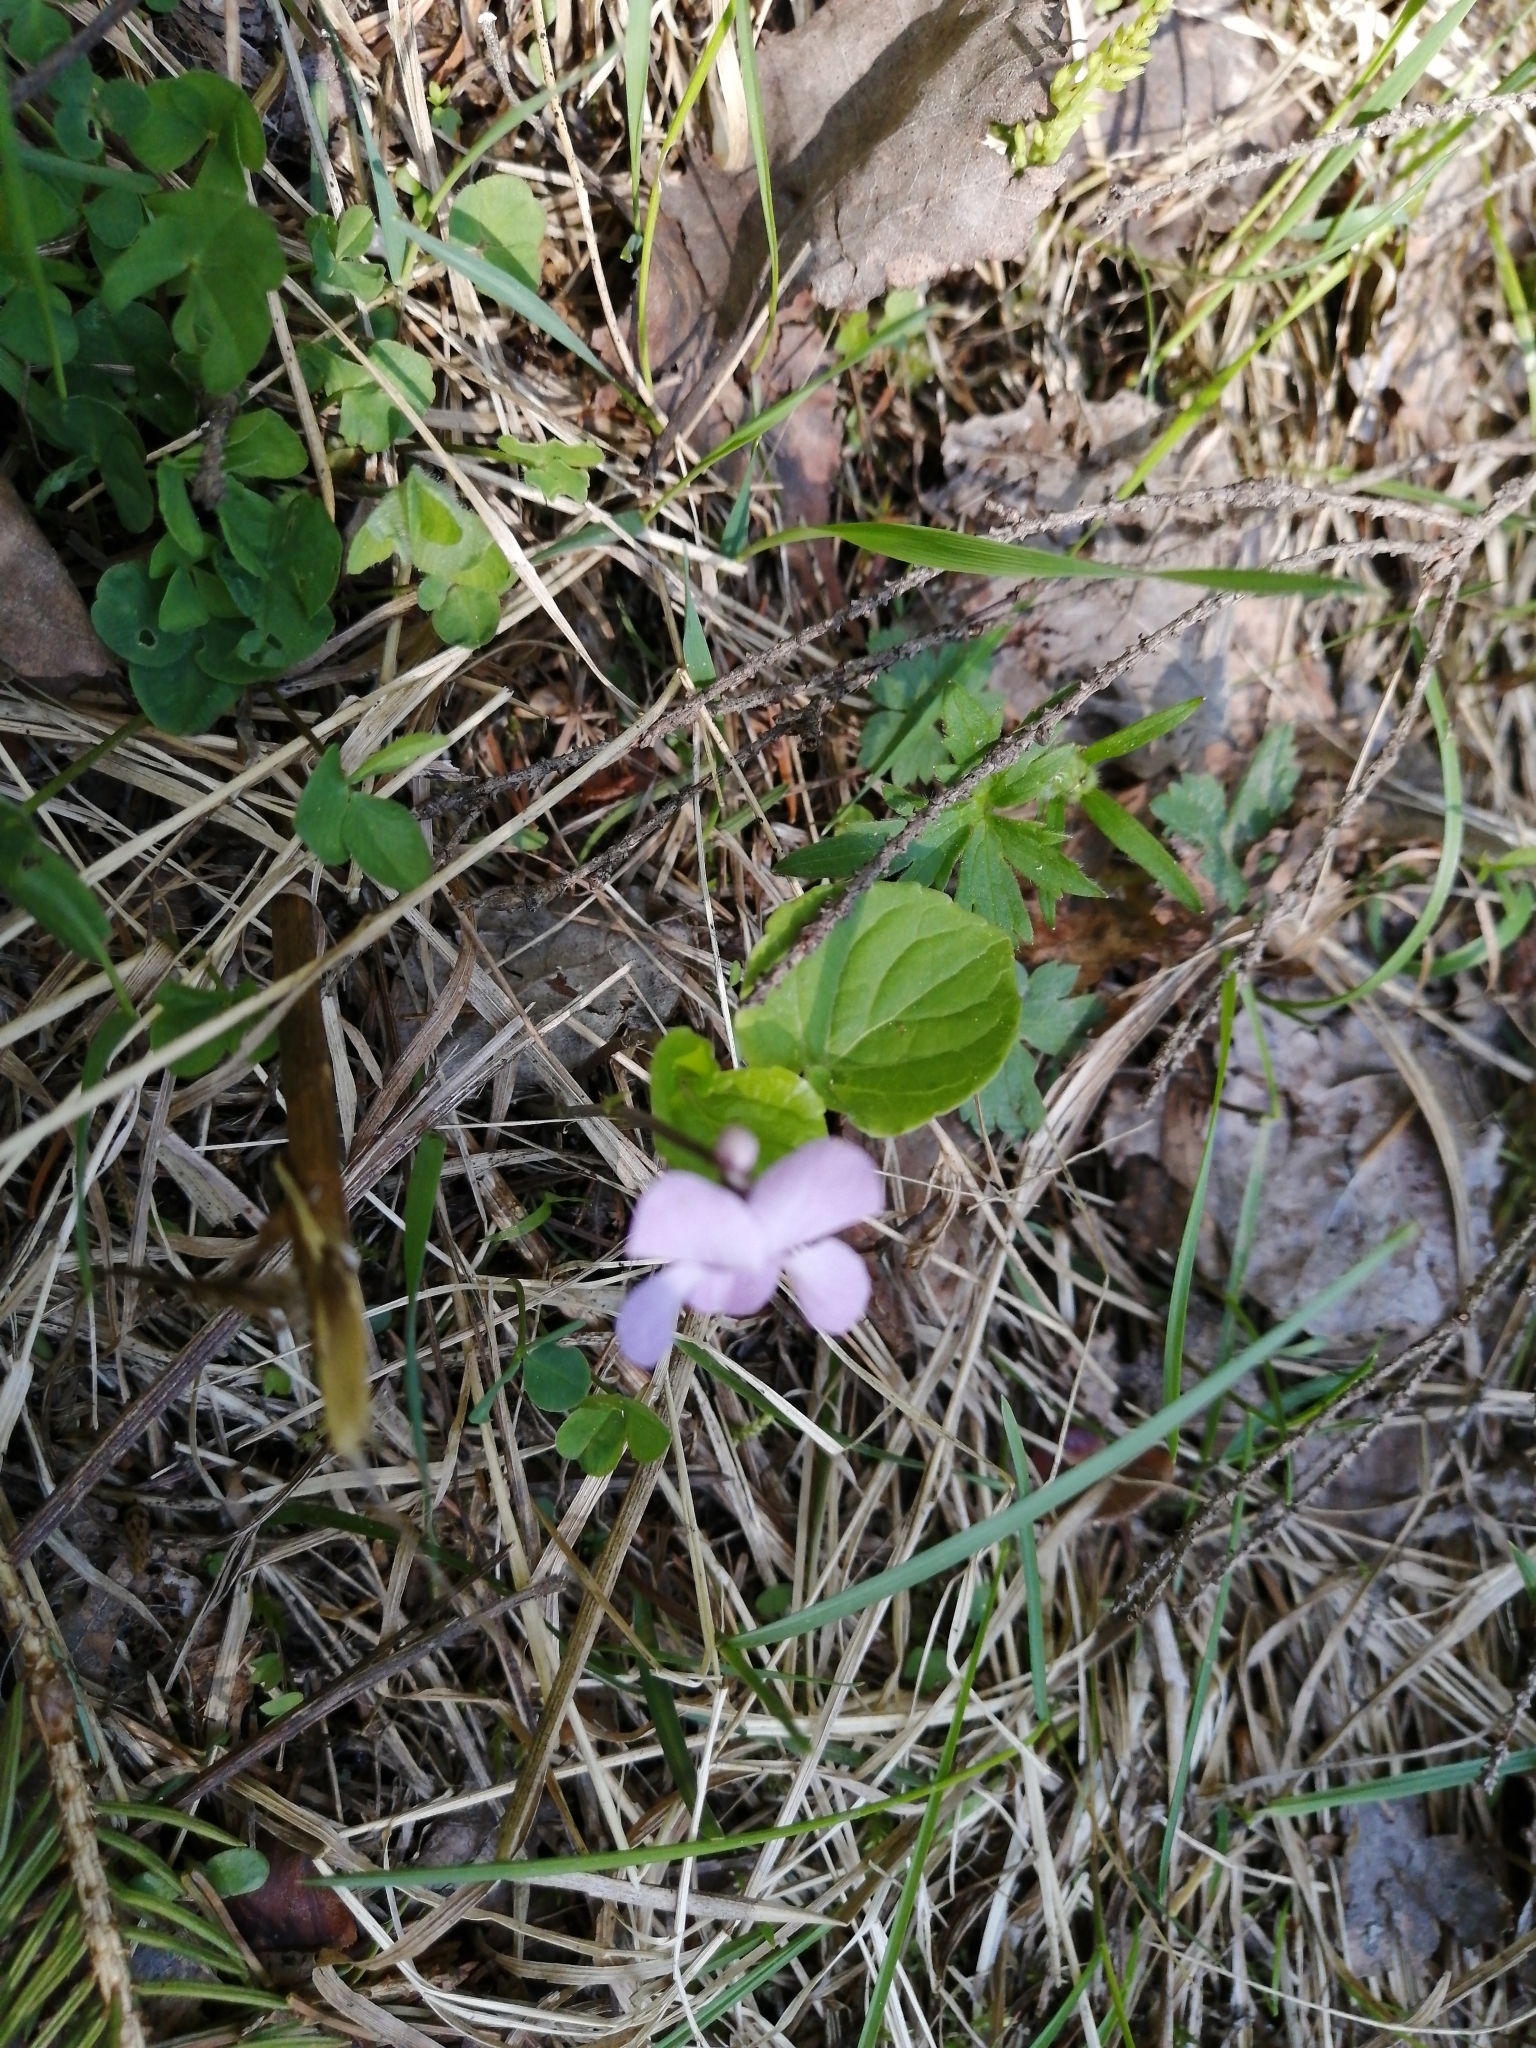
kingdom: Plantae
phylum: Tracheophyta
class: Magnoliopsida
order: Malpighiales
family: Violaceae
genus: Viola
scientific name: Viola epipsila
